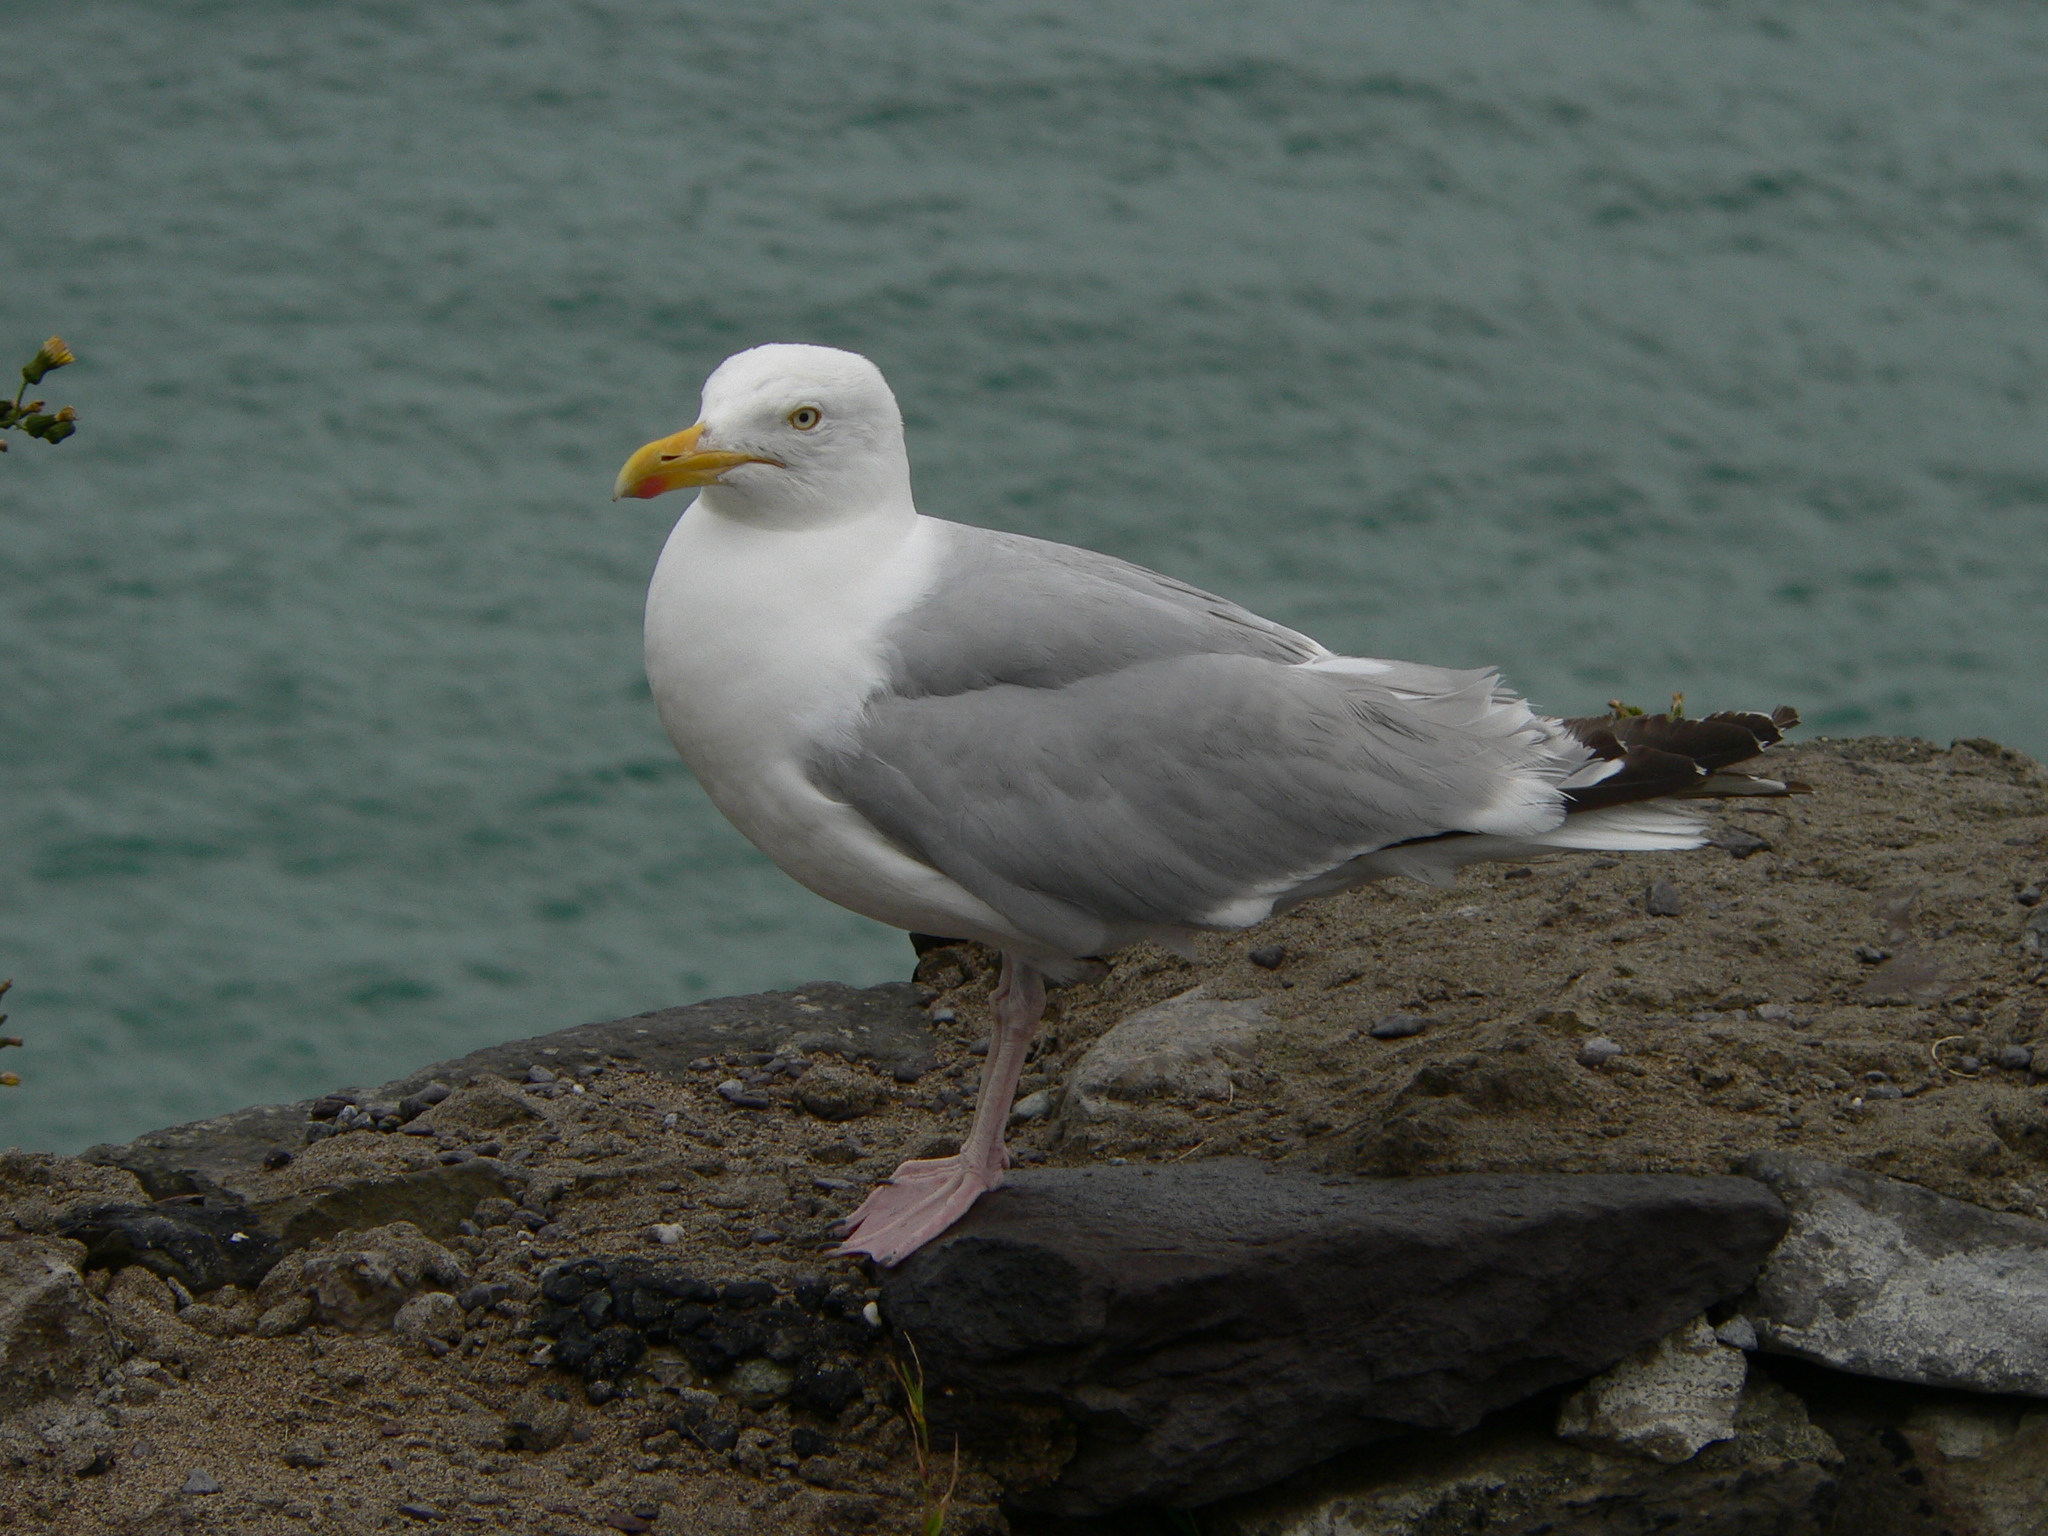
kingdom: Animalia
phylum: Chordata
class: Aves
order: Charadriiformes
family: Laridae
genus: Larus
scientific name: Larus argentatus
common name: Herring gull
